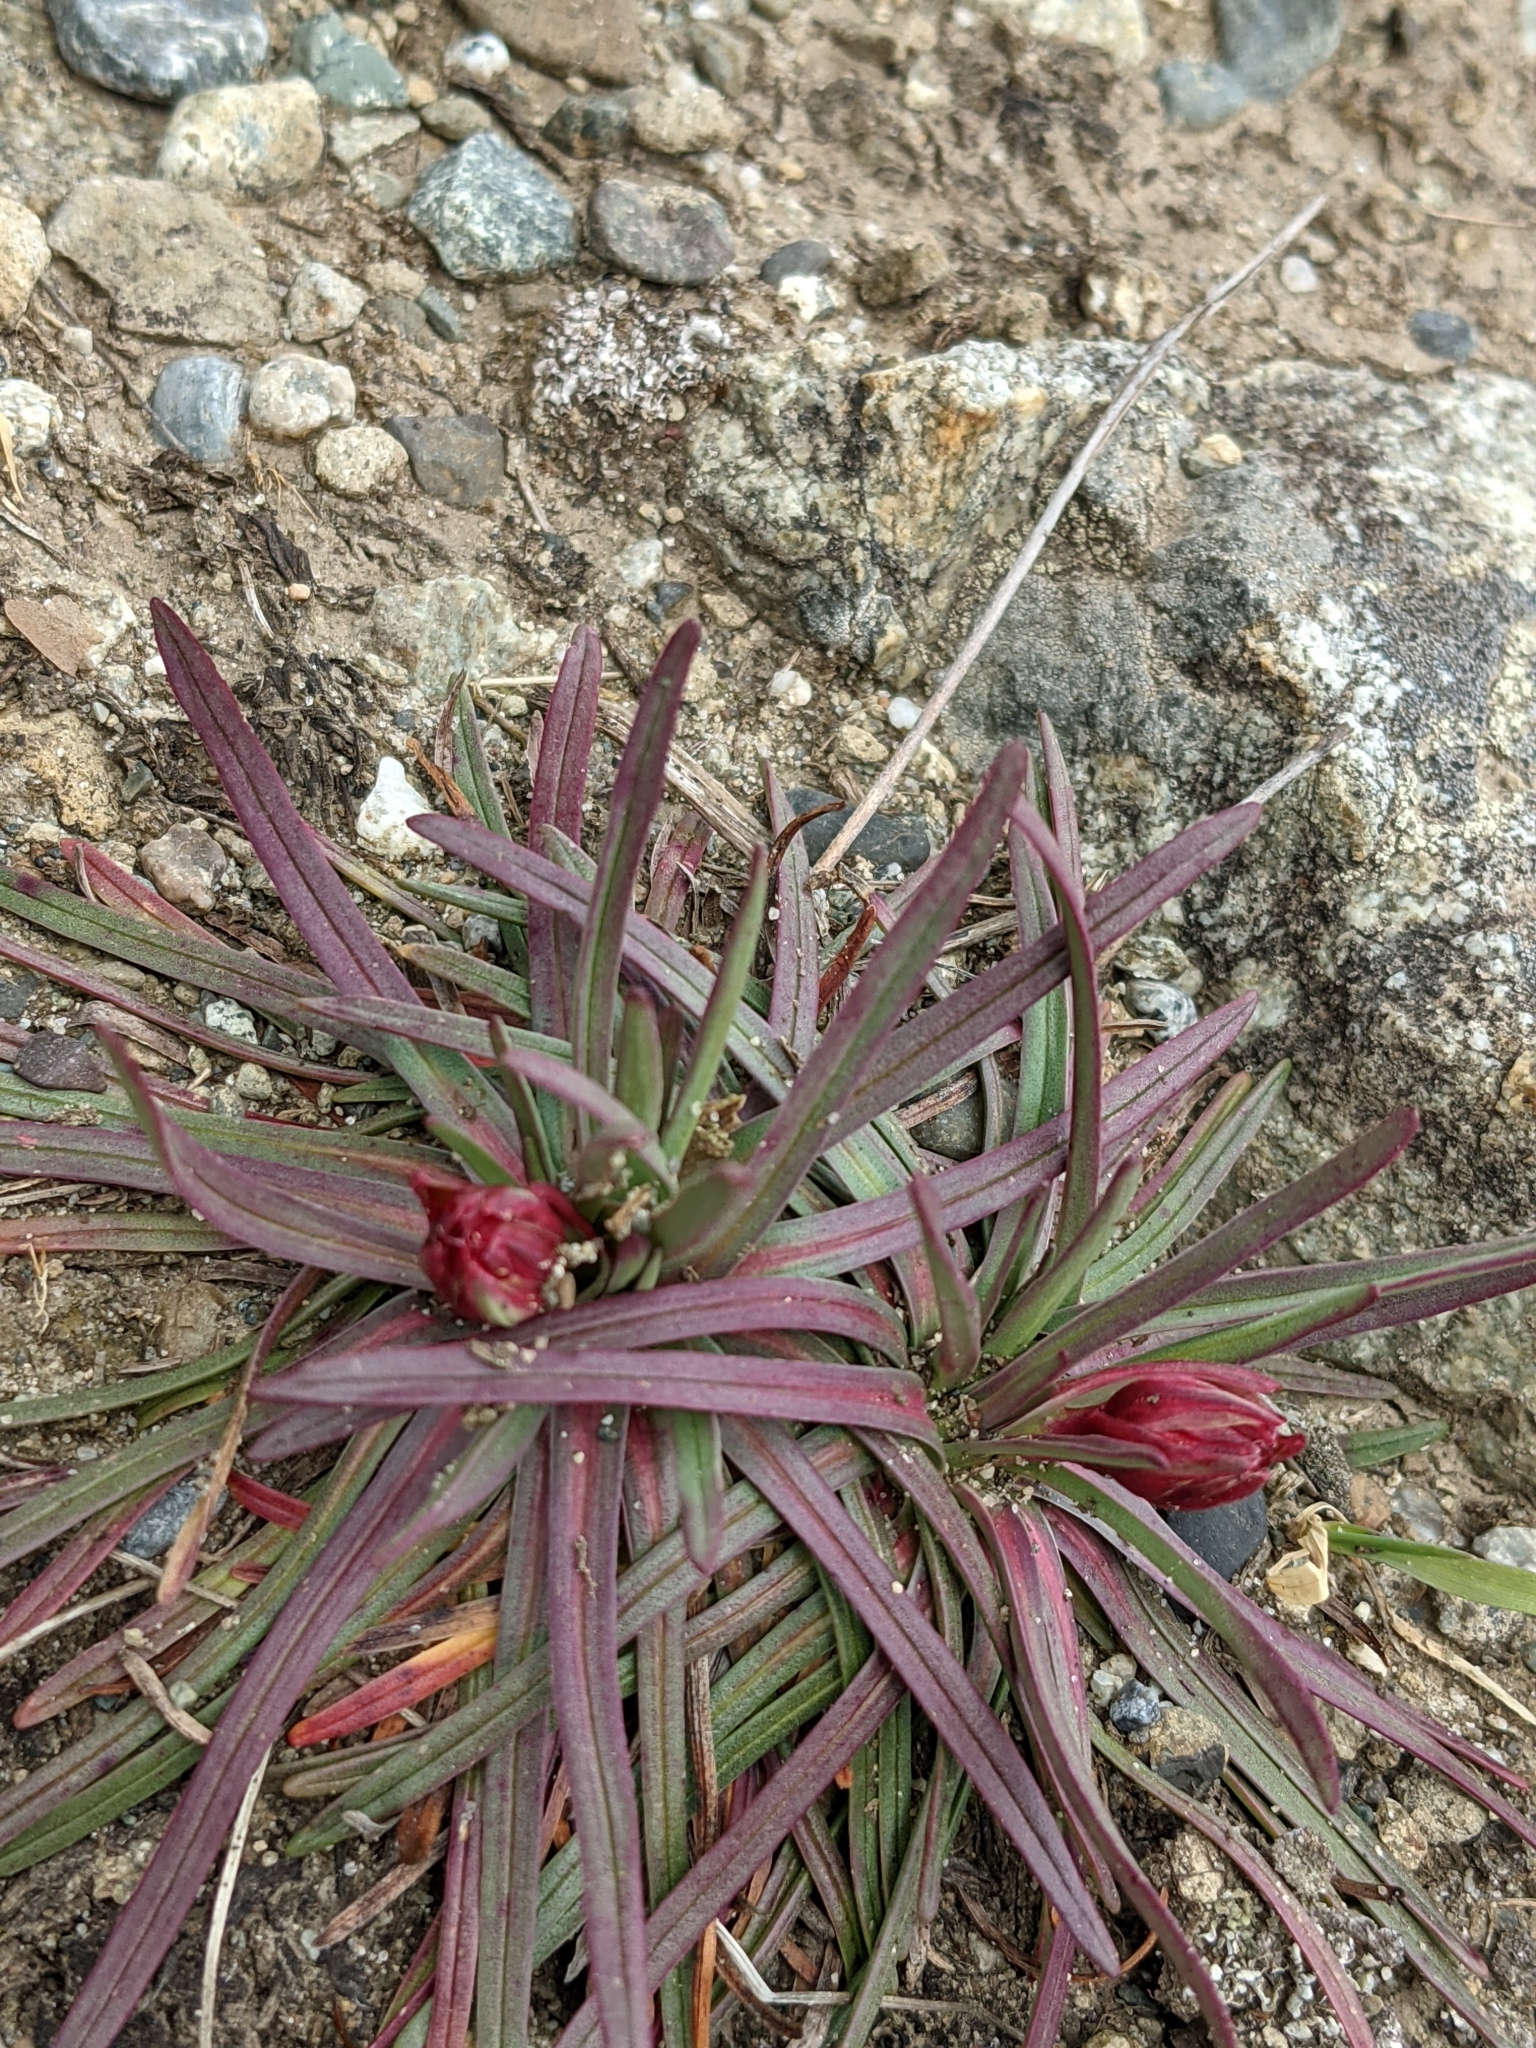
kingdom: Plantae
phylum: Tracheophyta
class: Magnoliopsida
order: Caryophyllales
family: Plumbaginaceae
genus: Armeria
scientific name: Armeria maritima
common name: Thrift
